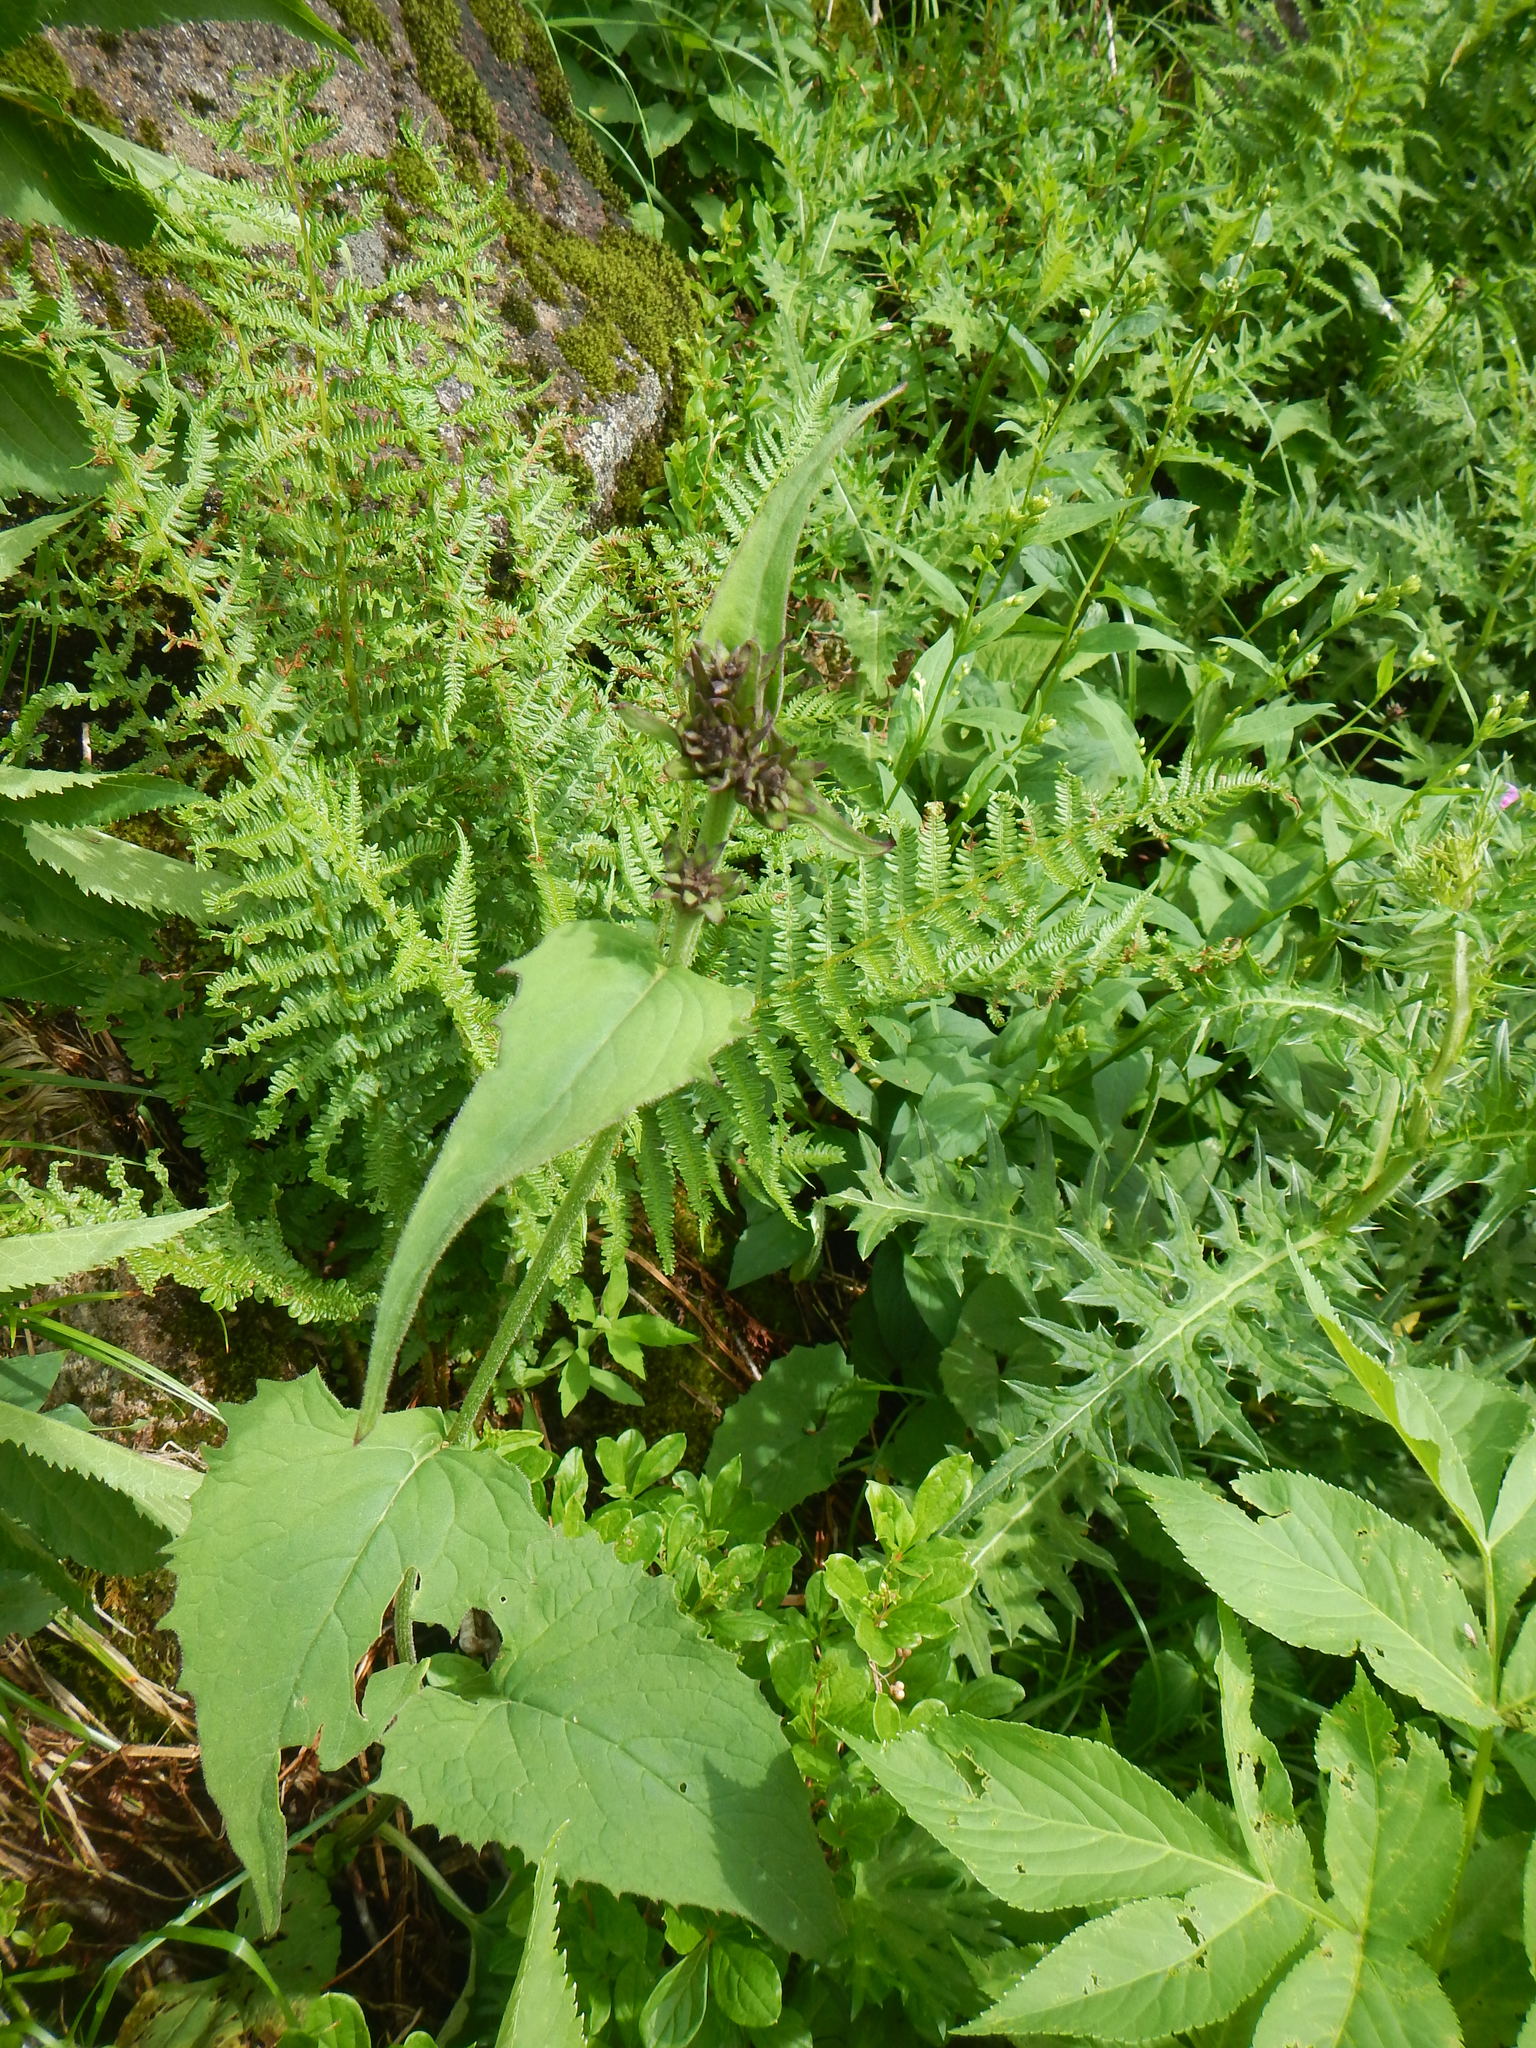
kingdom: Plantae
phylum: Tracheophyta
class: Magnoliopsida
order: Asterales
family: Asteraceae
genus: Saussurea
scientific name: Saussurea sessiliflora
